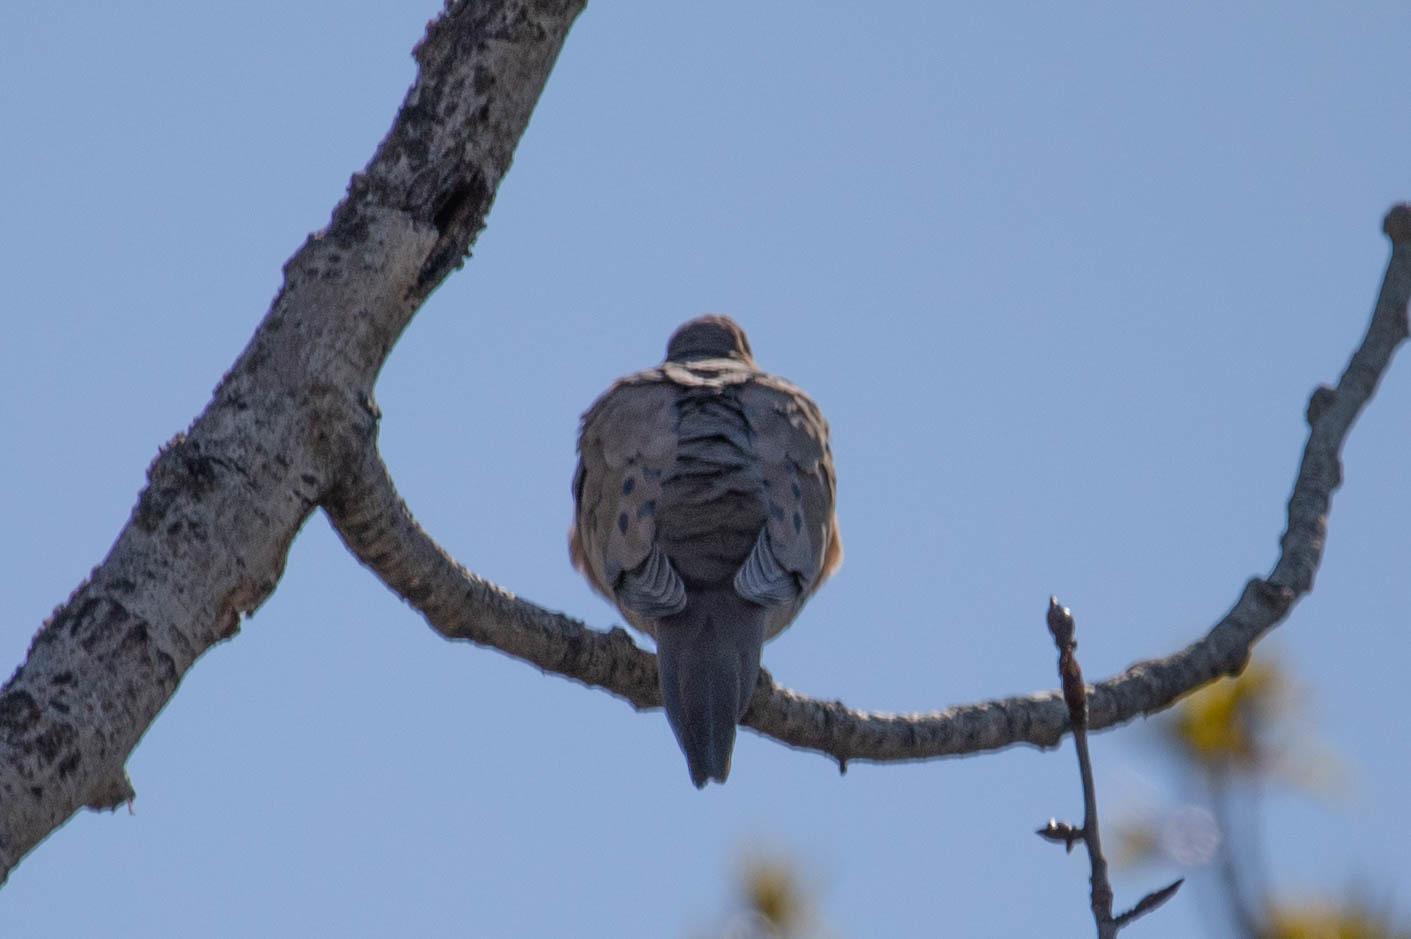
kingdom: Animalia
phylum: Chordata
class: Aves
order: Columbiformes
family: Columbidae
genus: Zenaida
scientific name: Zenaida macroura
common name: Mourning dove
